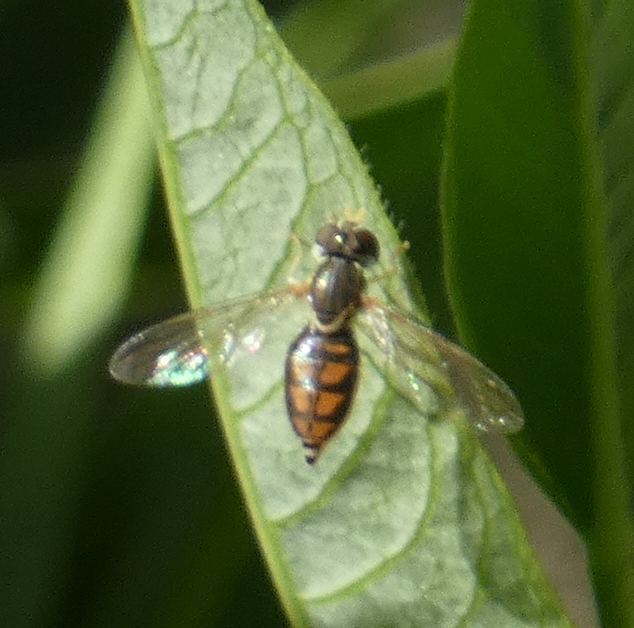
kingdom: Animalia
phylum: Arthropoda
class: Insecta
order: Diptera
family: Syrphidae
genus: Toxomerus
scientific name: Toxomerus marginatus
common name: Syrphid fly
